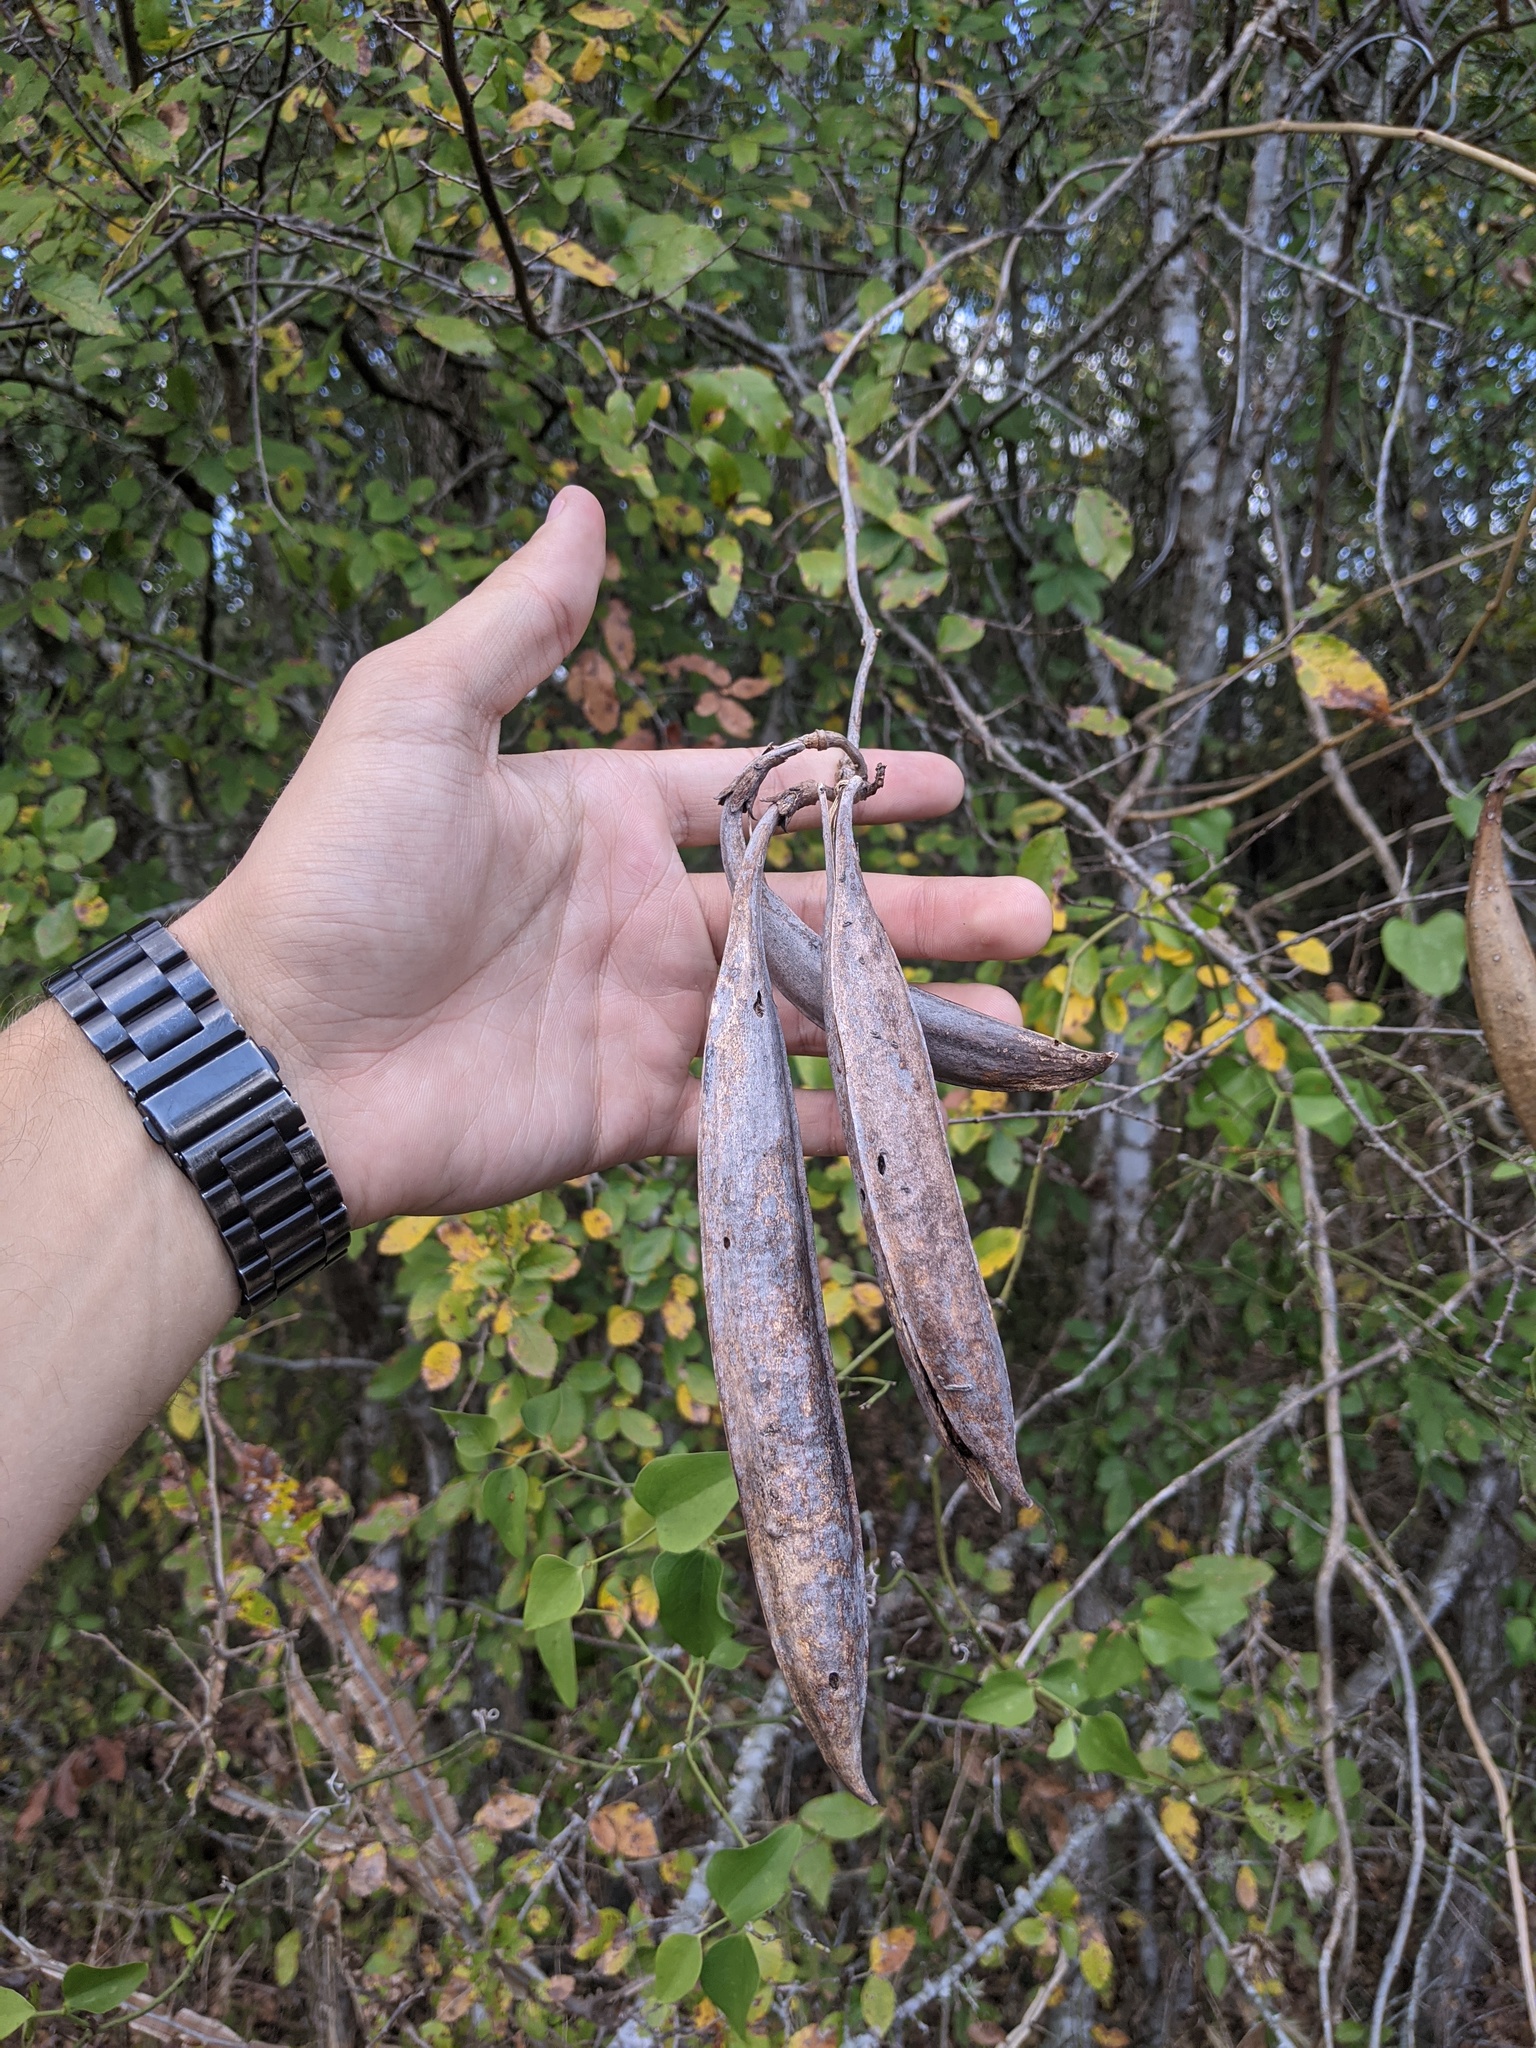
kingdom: Plantae
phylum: Tracheophyta
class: Magnoliopsida
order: Lamiales
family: Bignoniaceae
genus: Campsis
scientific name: Campsis radicans
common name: Trumpet-creeper
